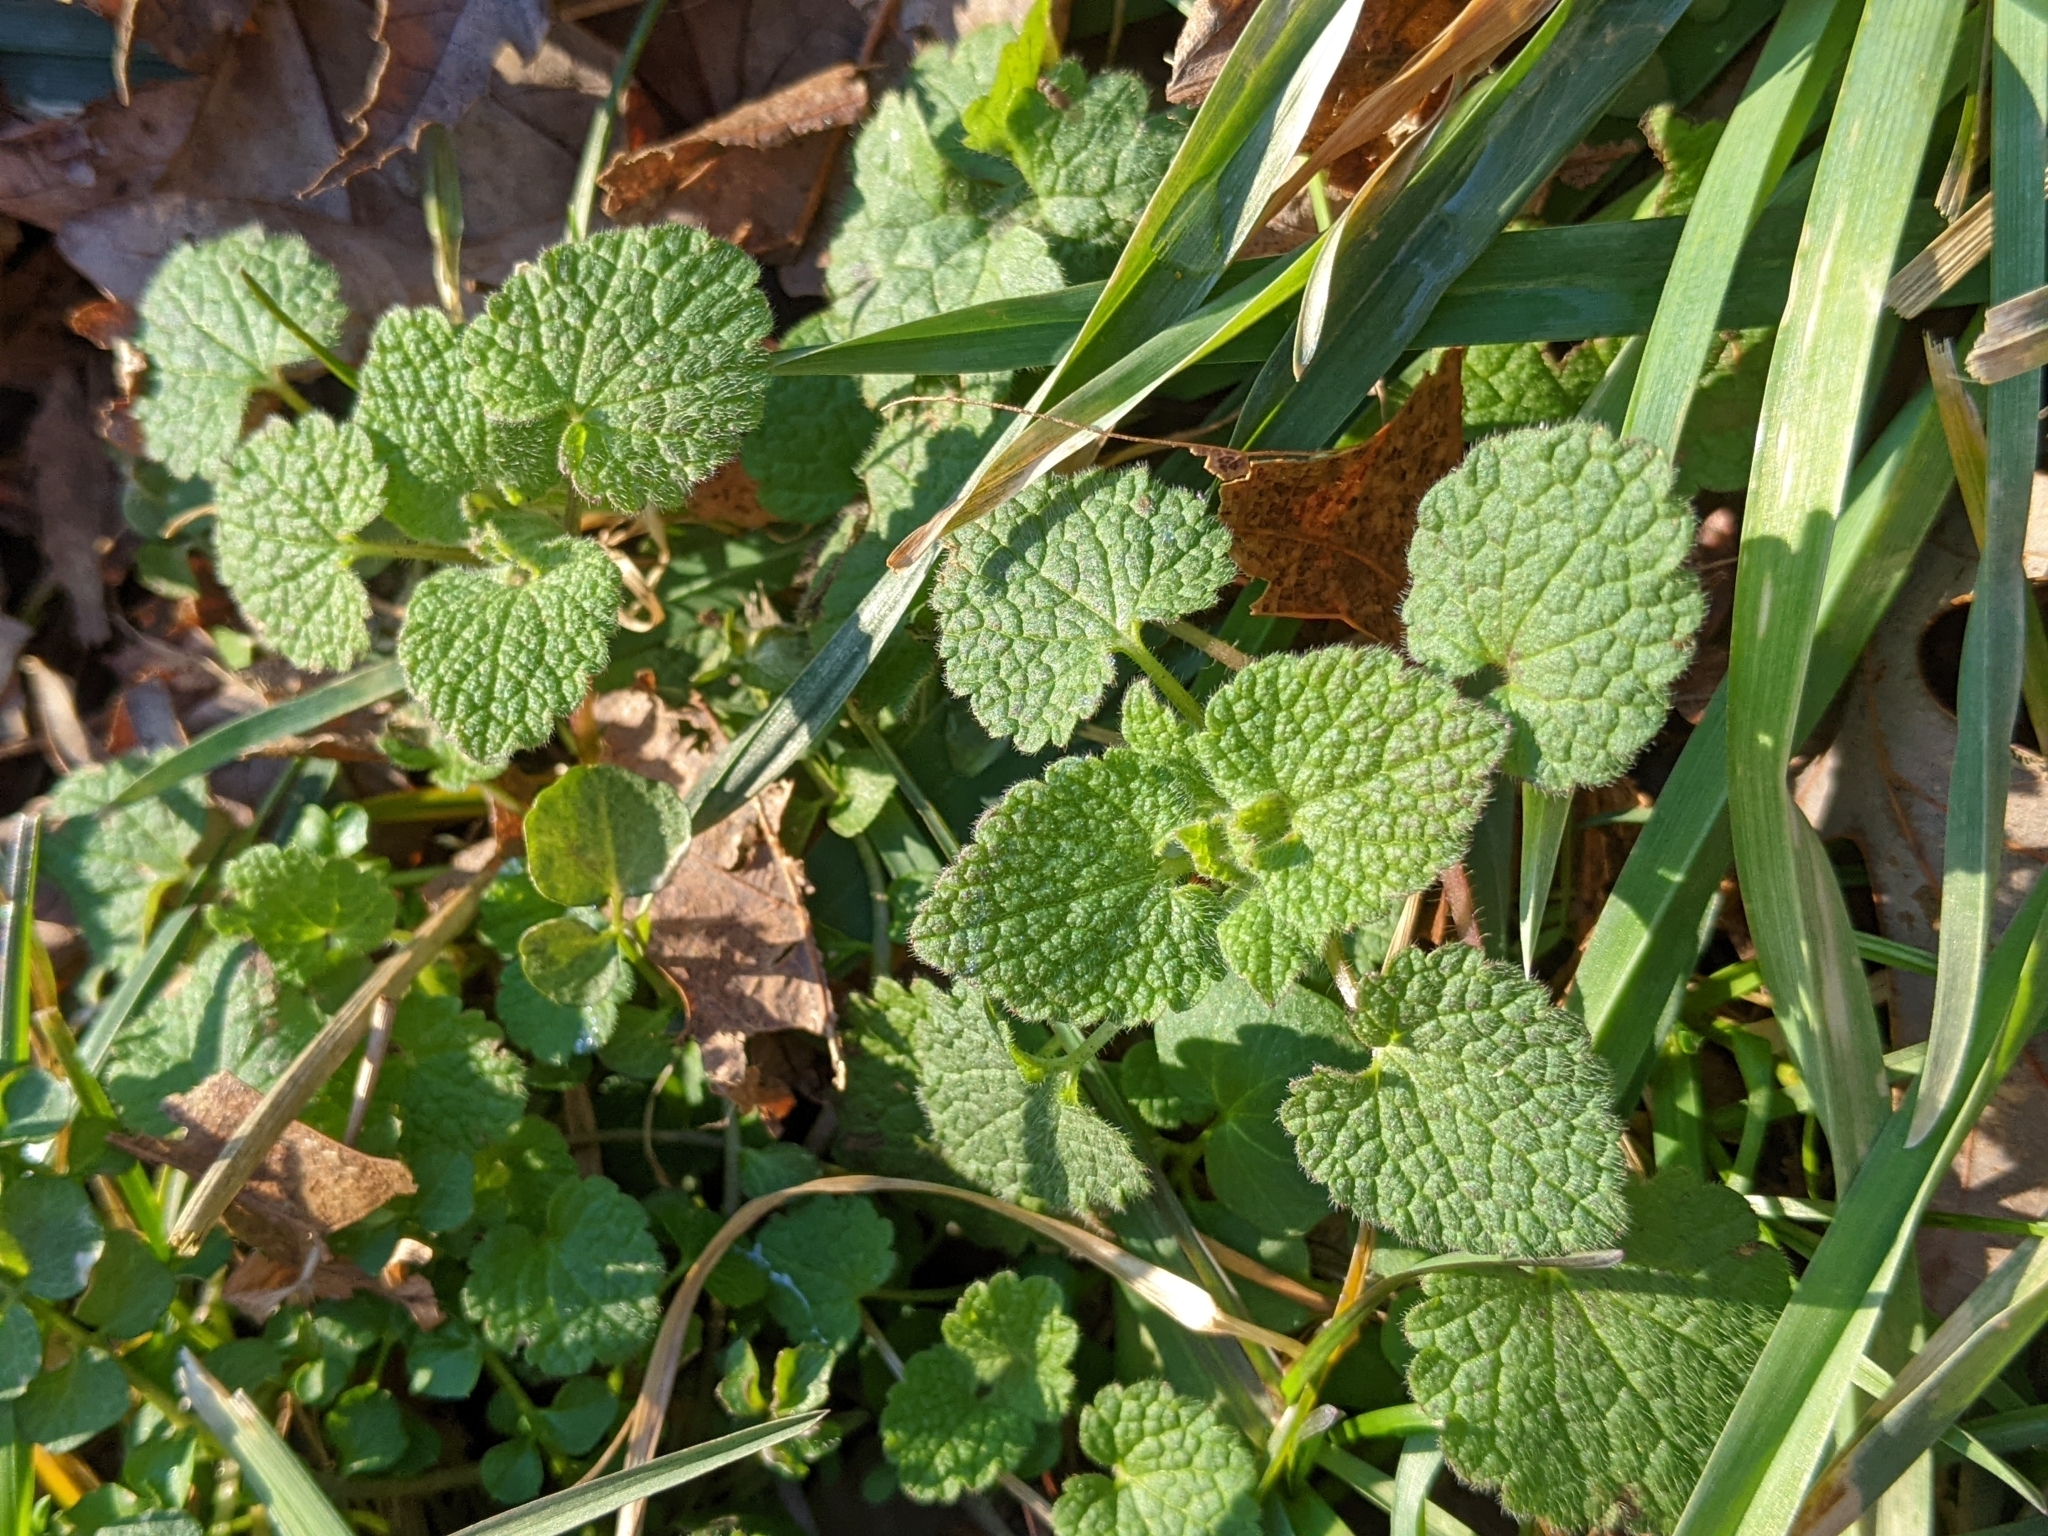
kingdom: Plantae
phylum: Tracheophyta
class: Magnoliopsida
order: Lamiales
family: Lamiaceae
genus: Lamium
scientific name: Lamium purpureum
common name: Red dead-nettle
